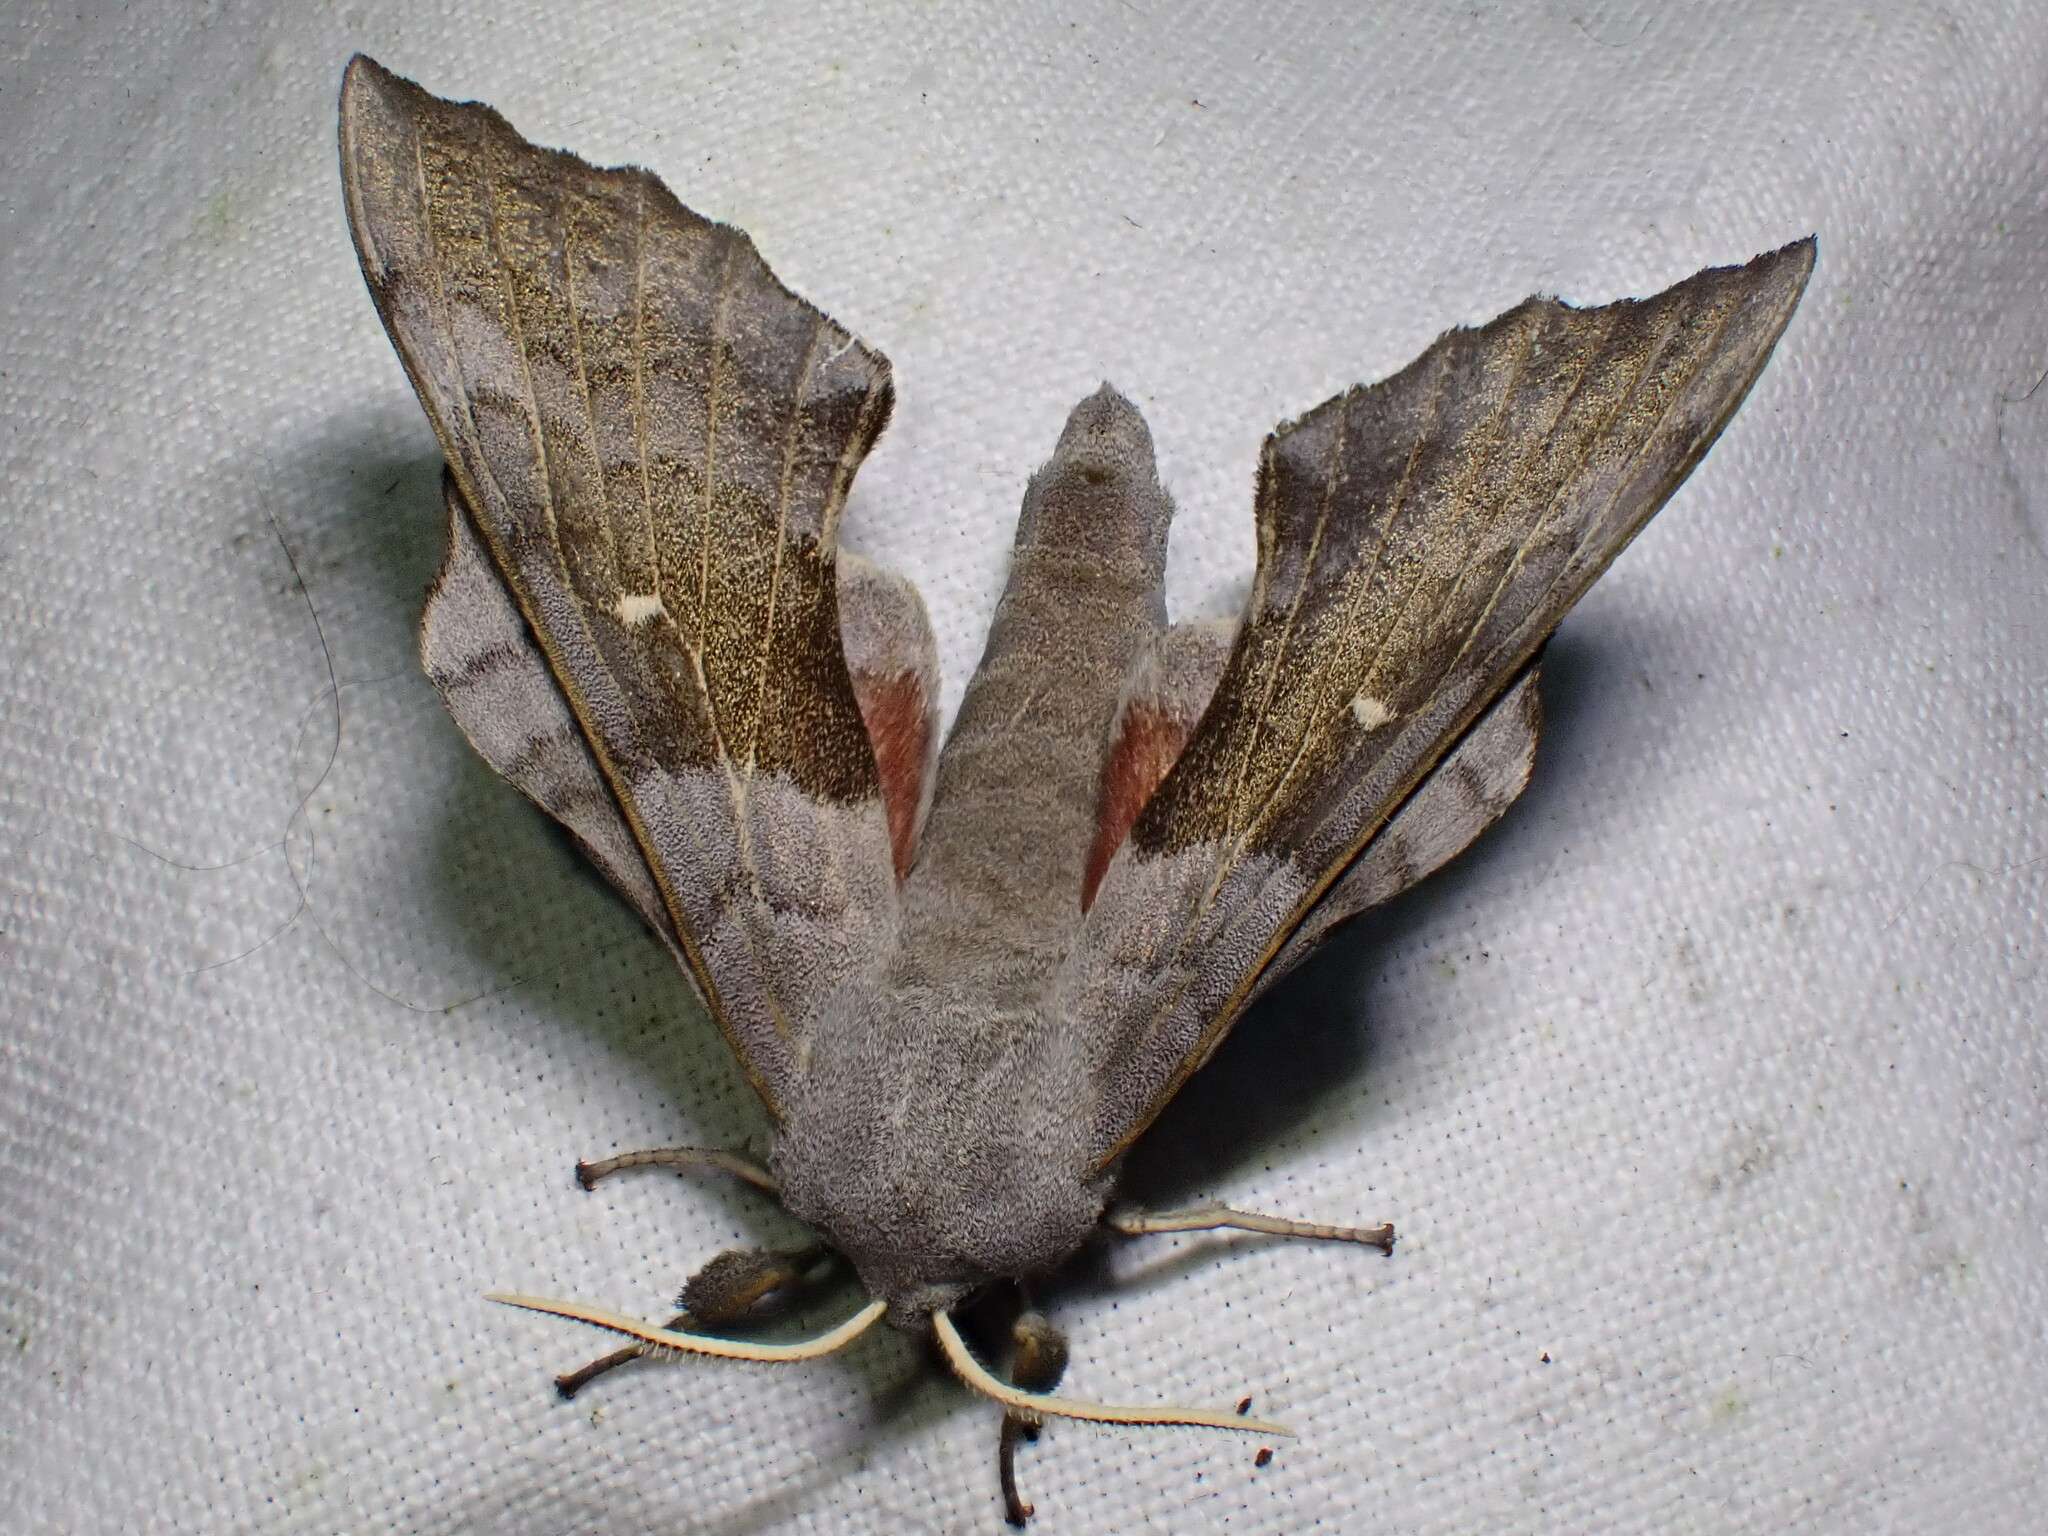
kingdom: Animalia
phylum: Arthropoda
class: Insecta
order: Lepidoptera
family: Sphingidae
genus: Laothoe
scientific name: Laothoe populi
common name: Poplar hawk-moth
